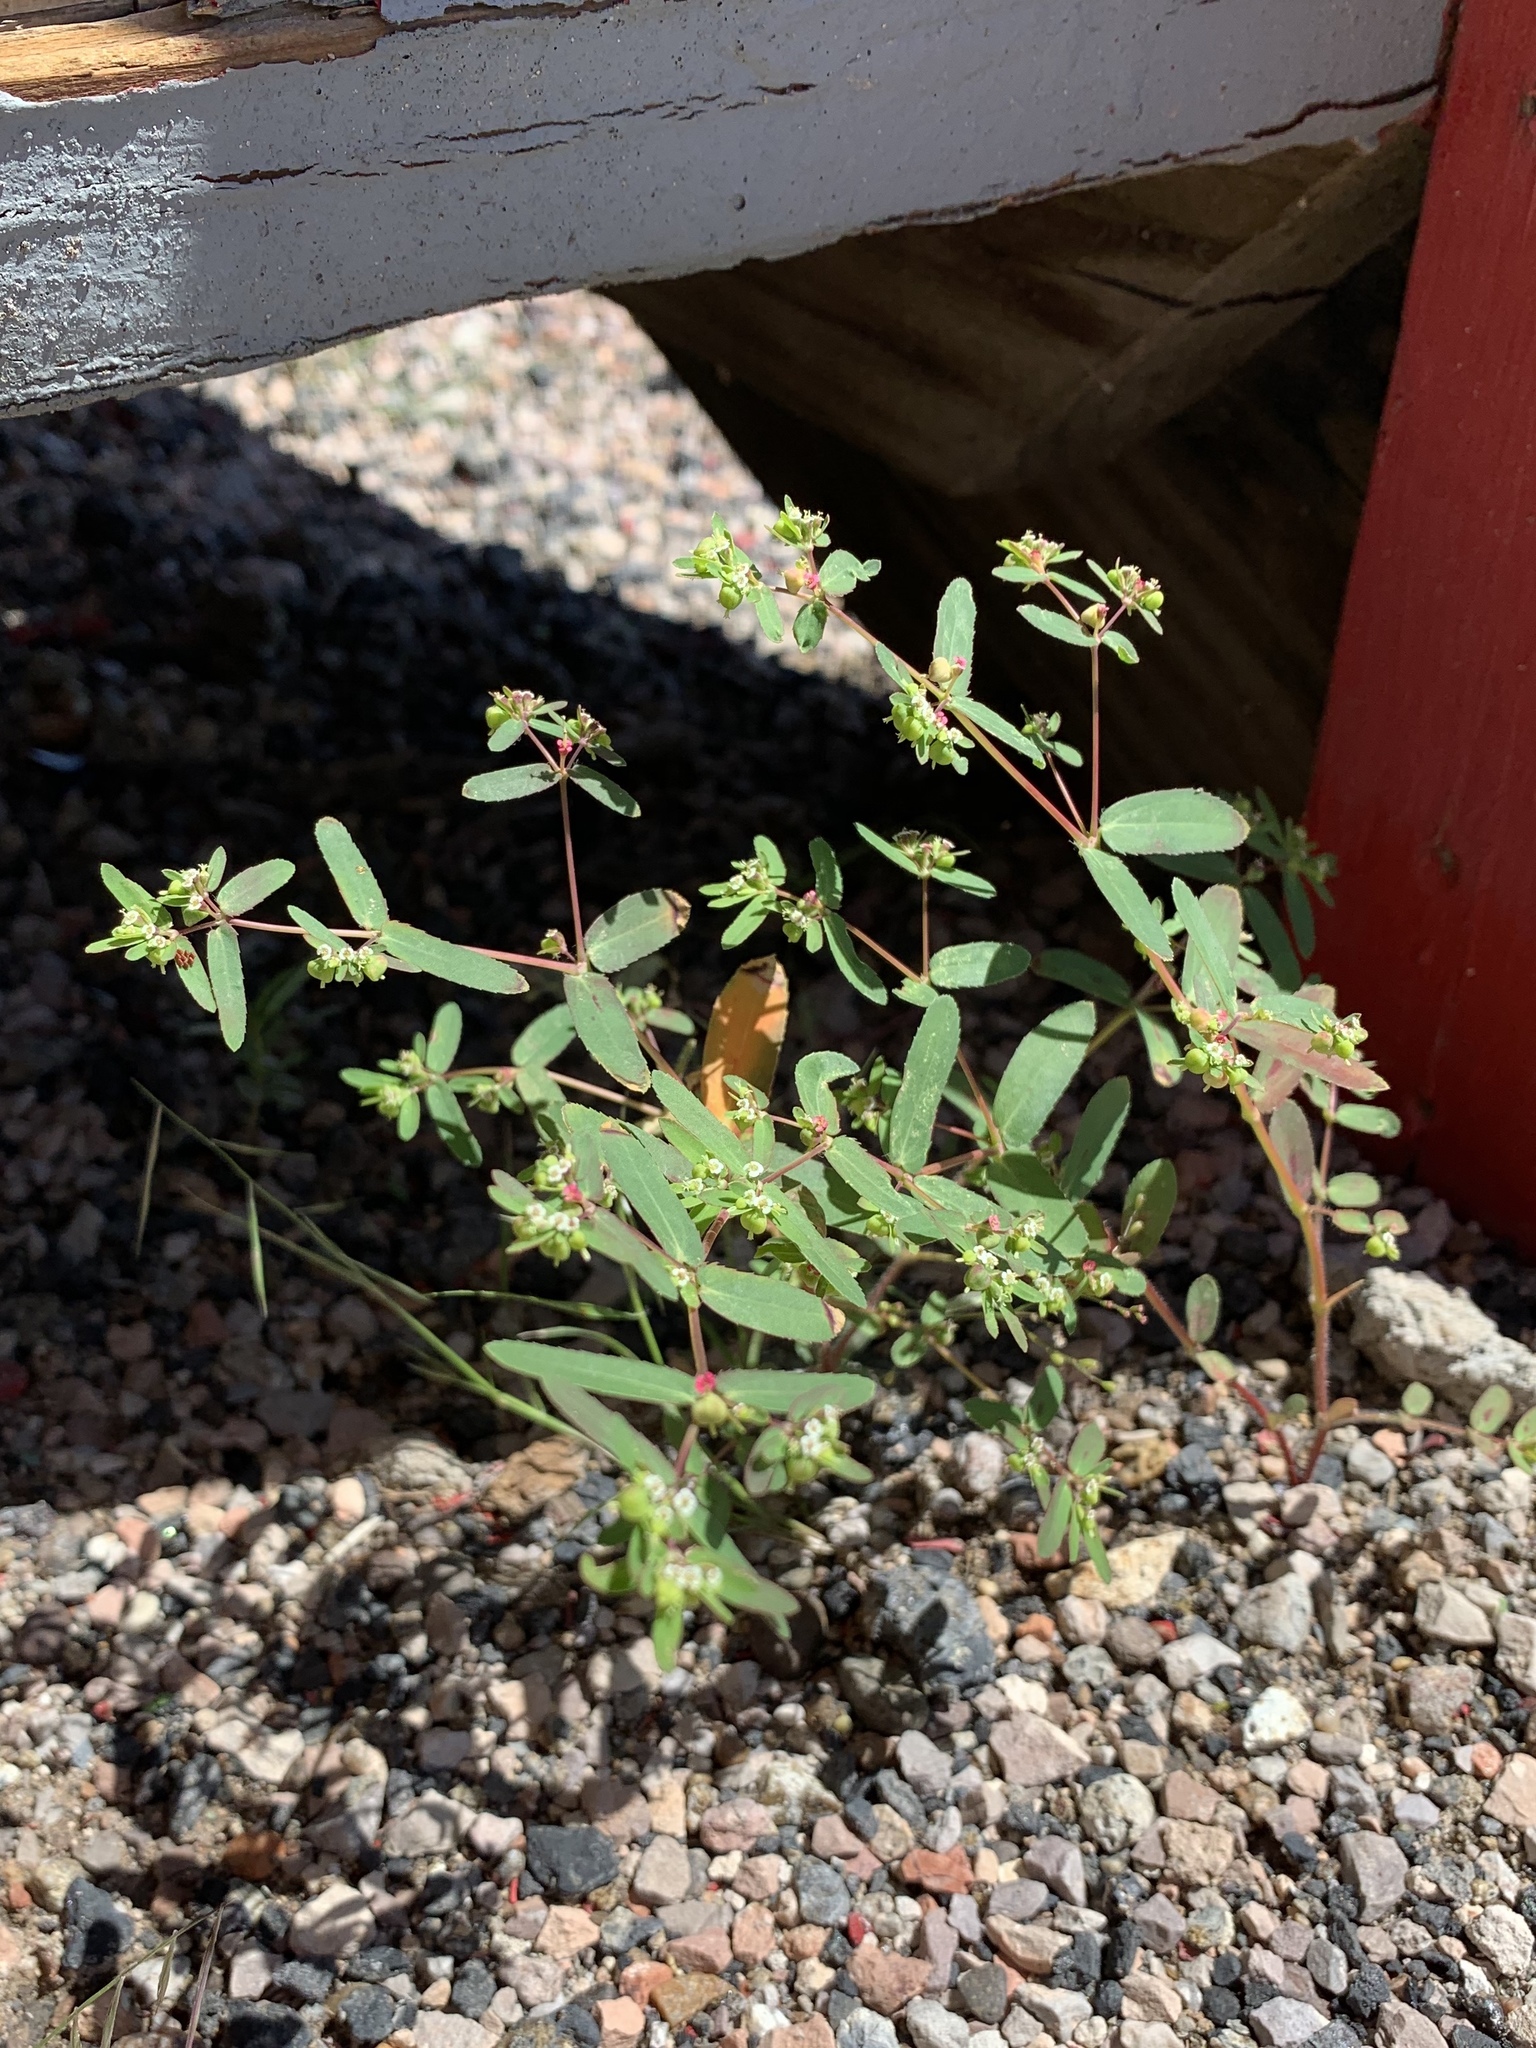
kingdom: Plantae
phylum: Tracheophyta
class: Magnoliopsida
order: Malpighiales
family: Euphorbiaceae
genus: Euphorbia
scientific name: Euphorbia hyssopifolia
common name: Hyssopleaf sandmat
